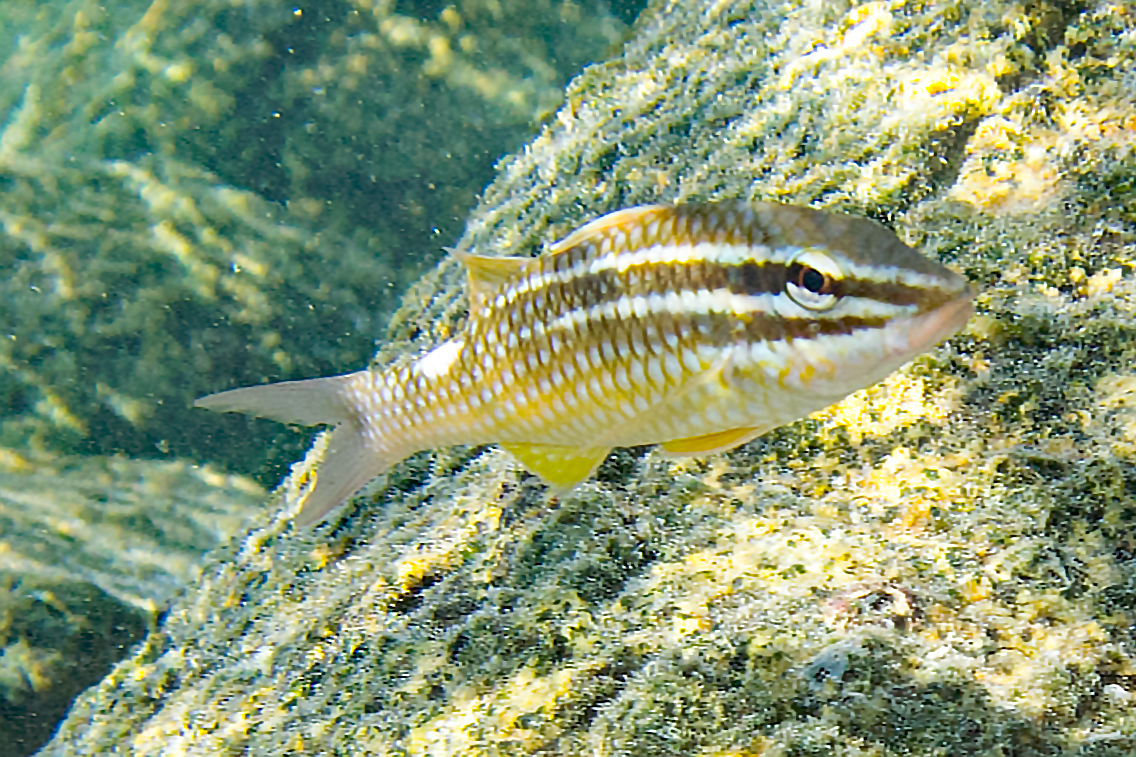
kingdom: Animalia
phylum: Chordata
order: Perciformes
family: Mullidae
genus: Parupeneus
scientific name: Parupeneus ciliatus
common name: White-lined goatfish
